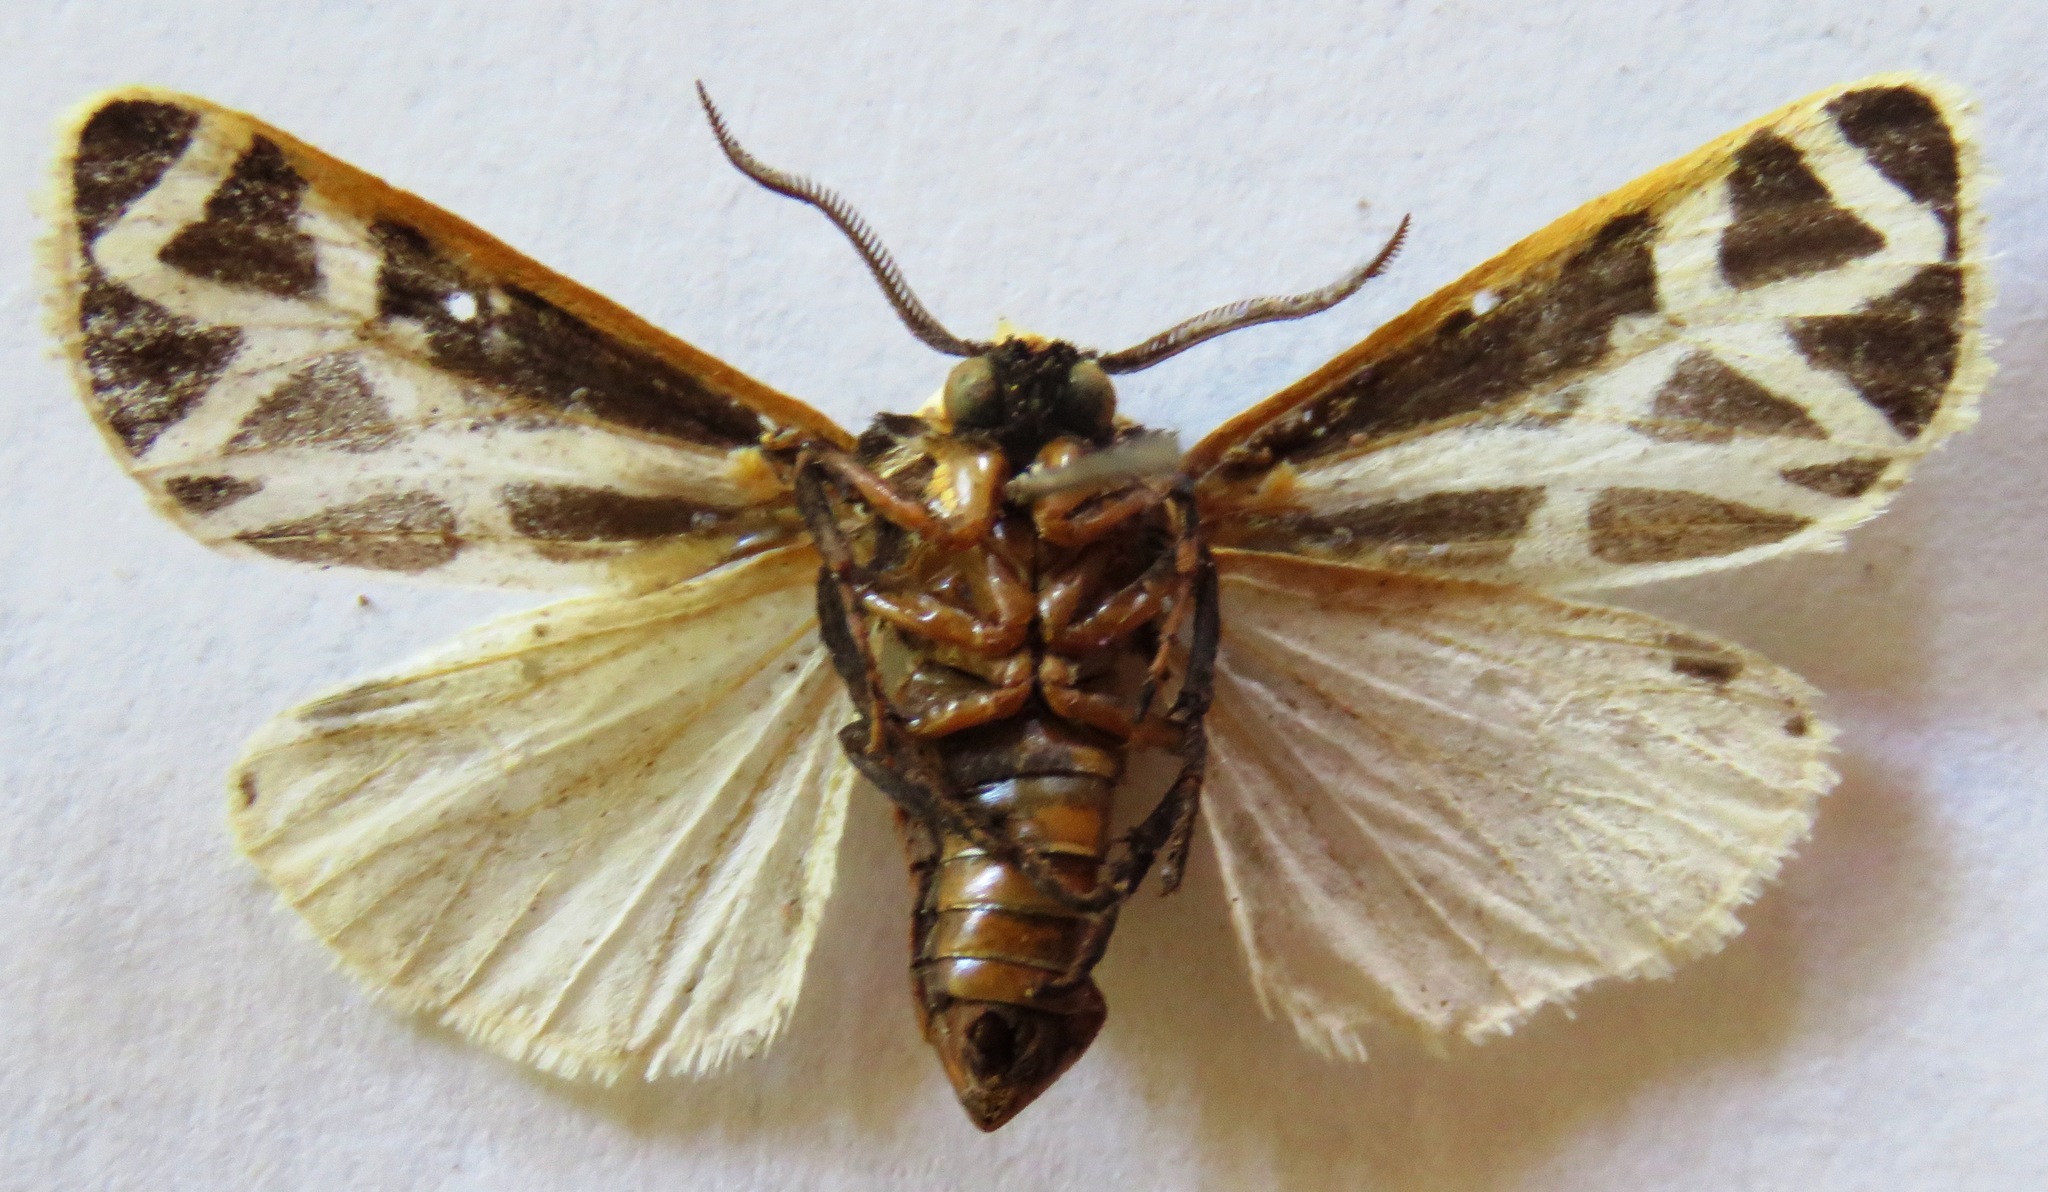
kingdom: Animalia
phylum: Arthropoda
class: Insecta
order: Lepidoptera
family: Erebidae
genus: Apantesis
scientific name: Apantesis
